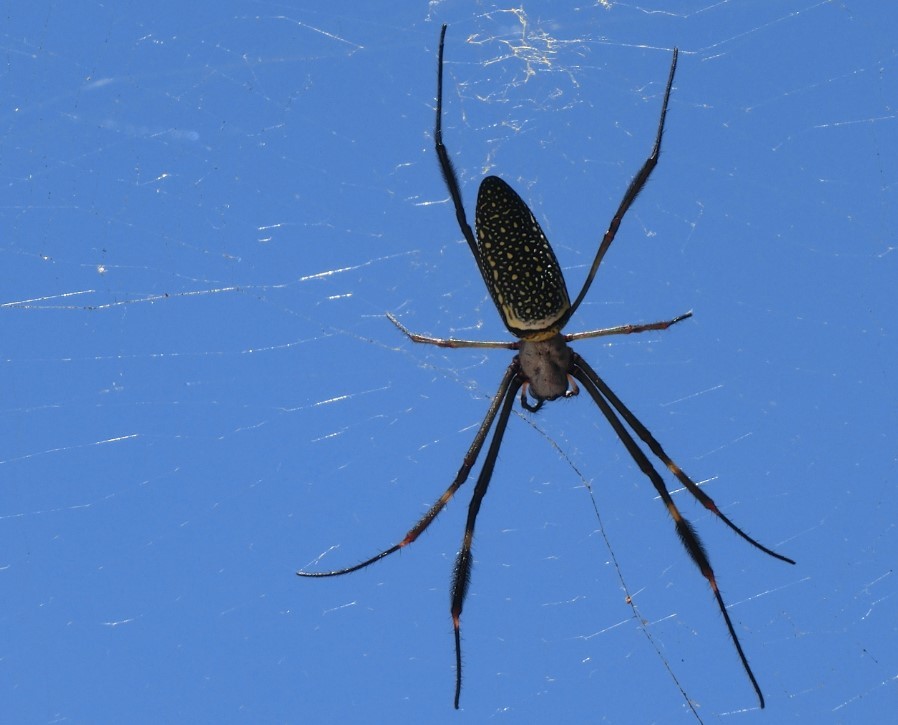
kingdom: Animalia
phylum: Arthropoda
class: Arachnida
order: Araneae
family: Araneidae
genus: Trichonephila
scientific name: Trichonephila clavipes
